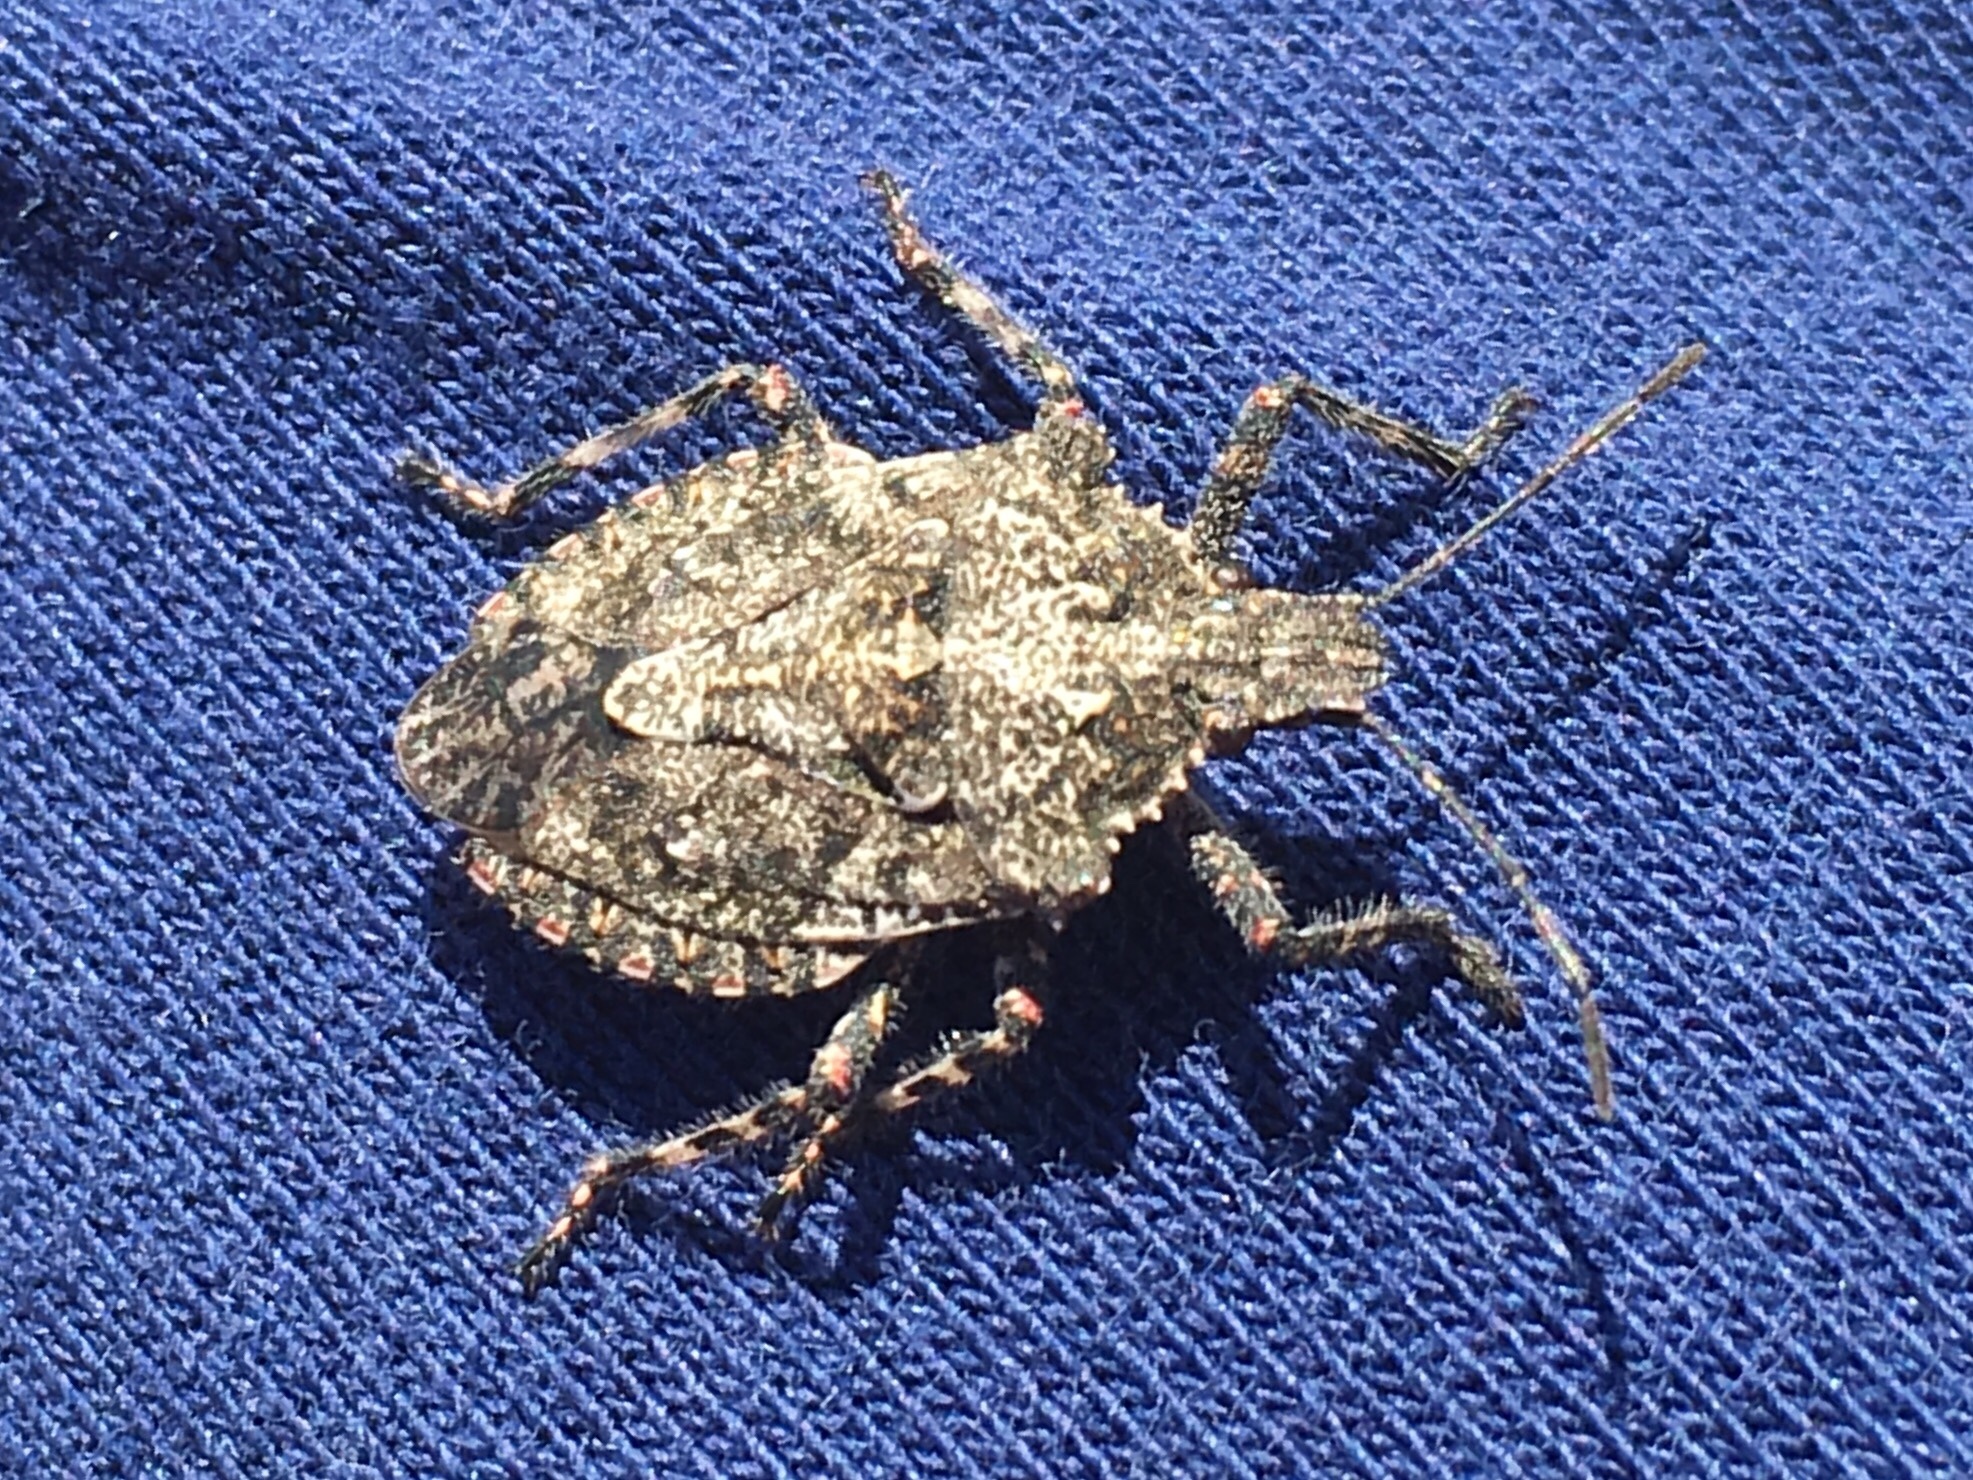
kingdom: Animalia
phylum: Arthropoda
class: Insecta
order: Hemiptera
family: Pentatomidae
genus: Brochymena
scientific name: Brochymena arborea
